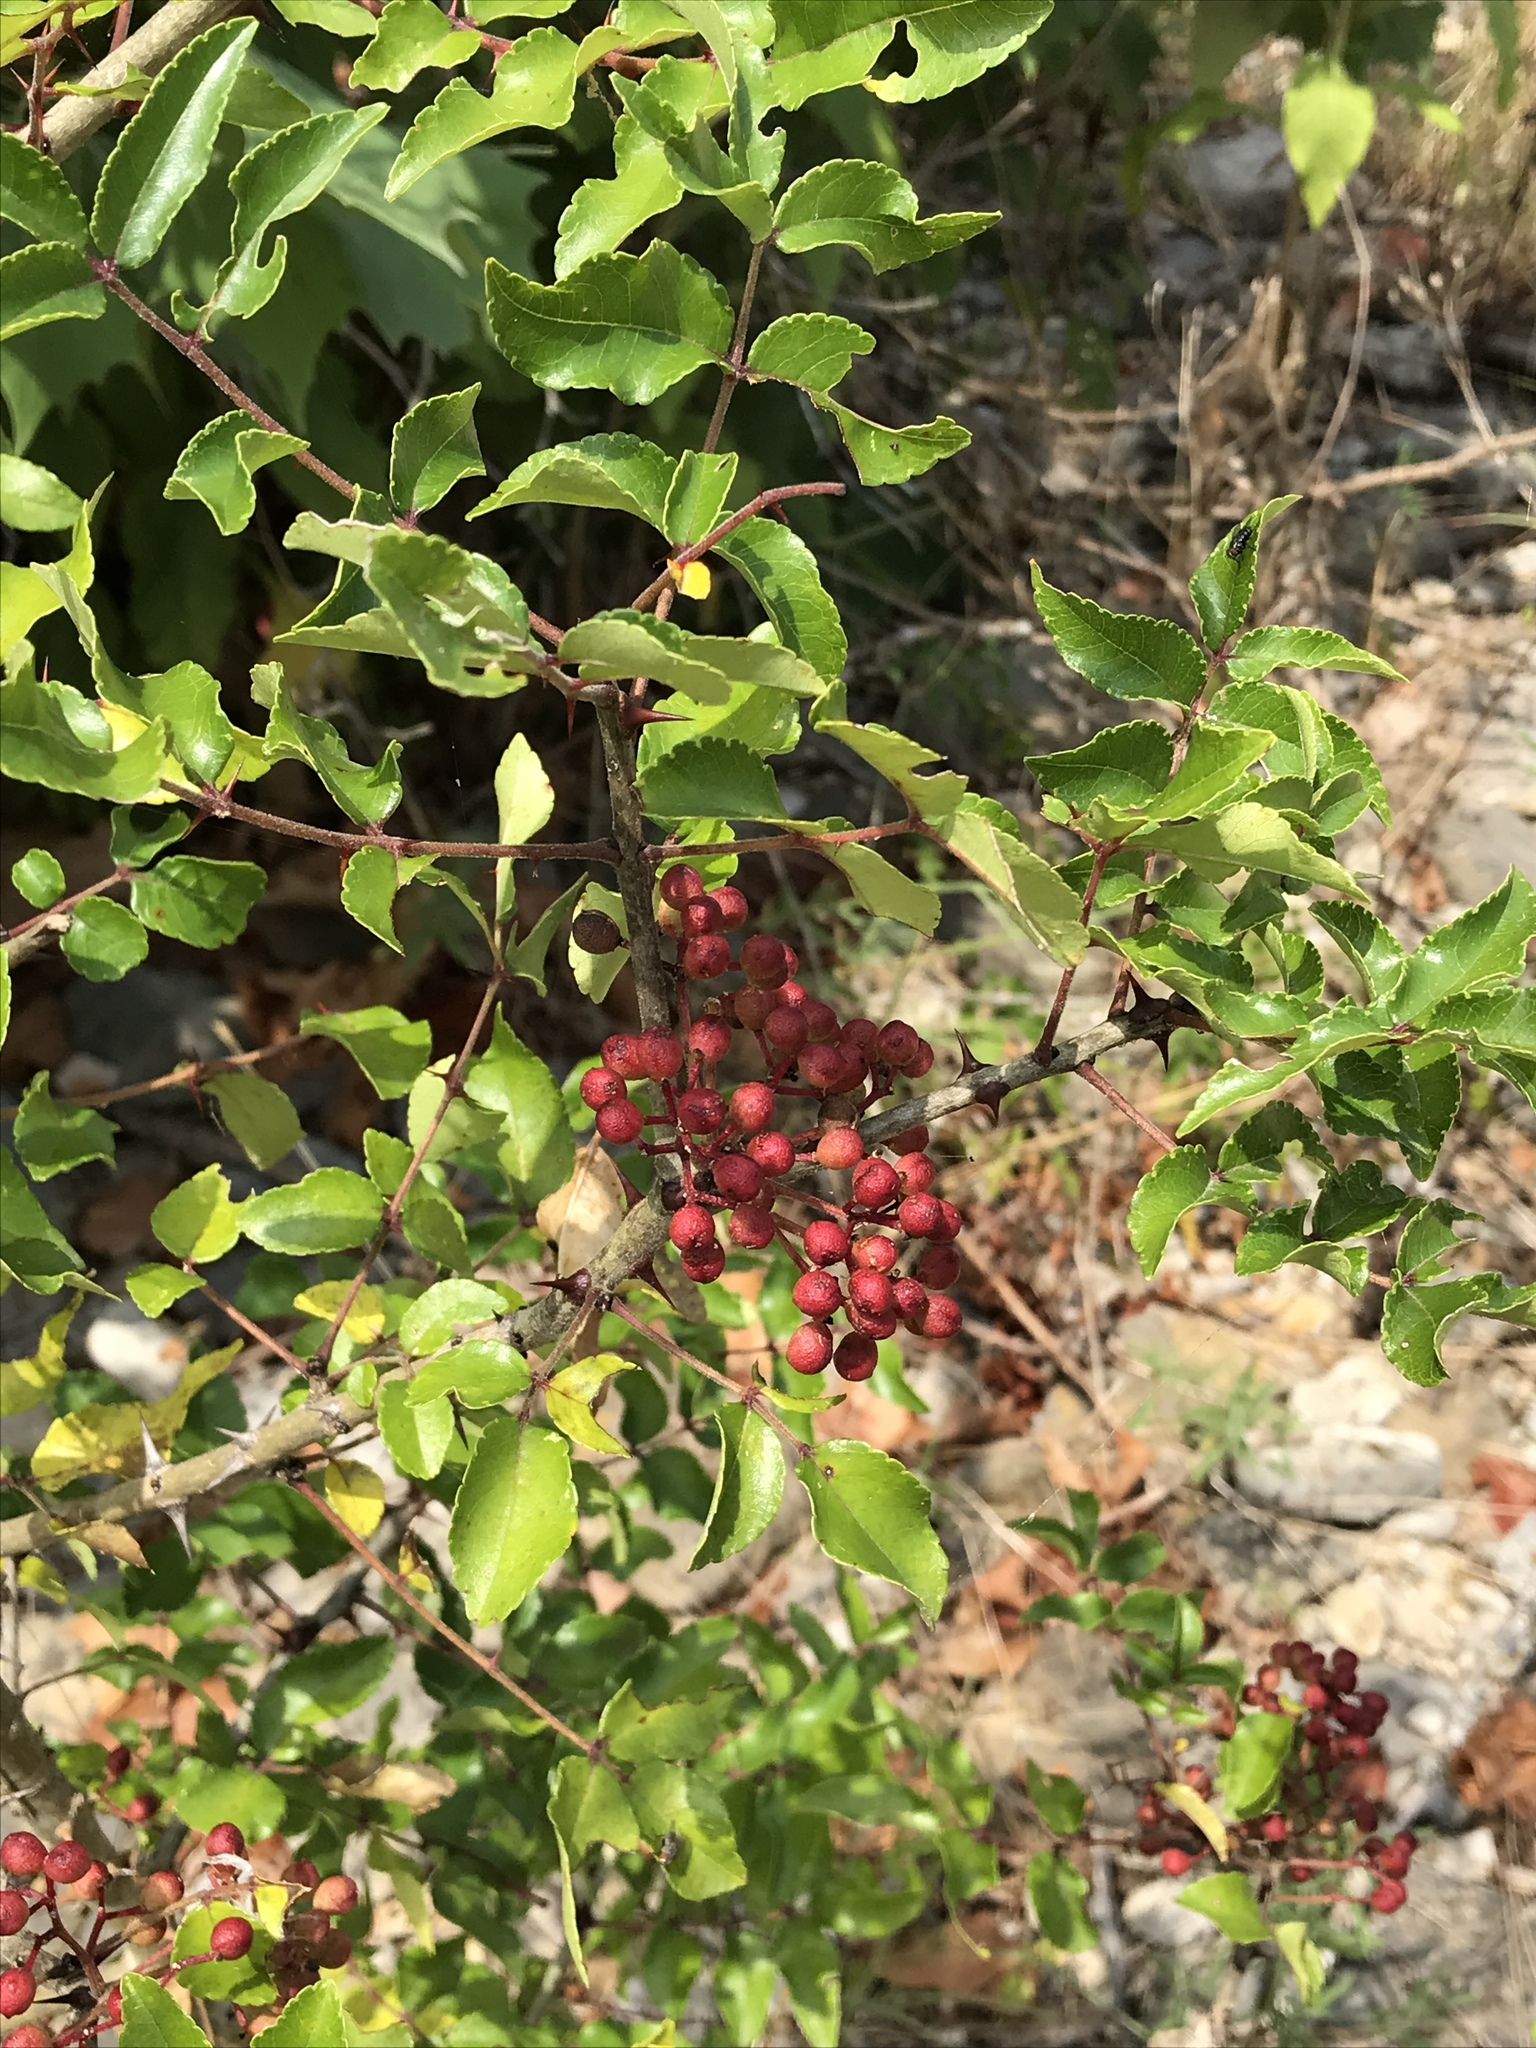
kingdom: Plantae
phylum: Tracheophyta
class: Magnoliopsida
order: Sapindales
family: Rutaceae
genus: Zanthoxylum
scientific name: Zanthoxylum clava-herculis
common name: Hercules'-club
